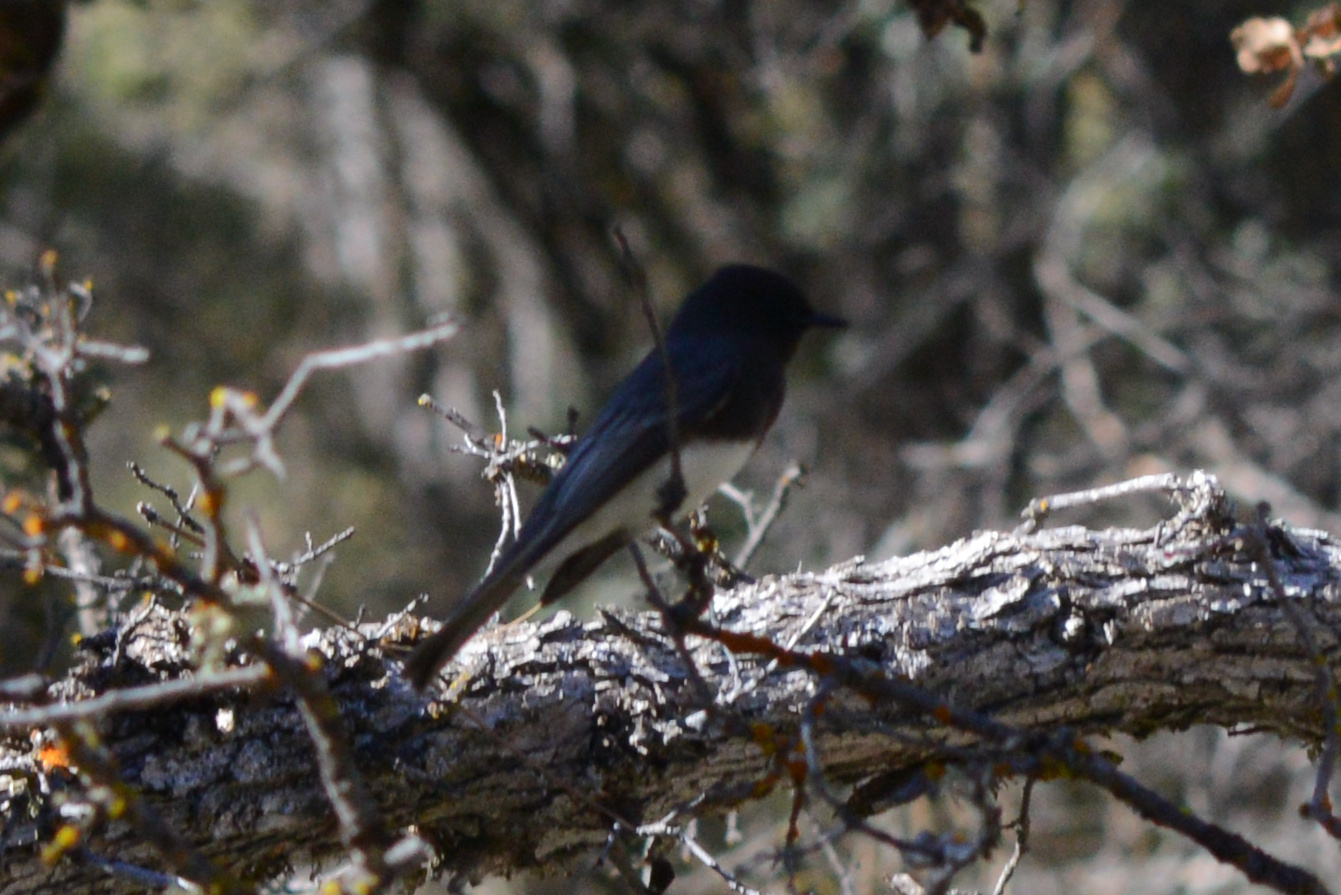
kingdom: Animalia
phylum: Chordata
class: Aves
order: Passeriformes
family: Tyrannidae
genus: Sayornis
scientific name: Sayornis nigricans
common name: Black phoebe
